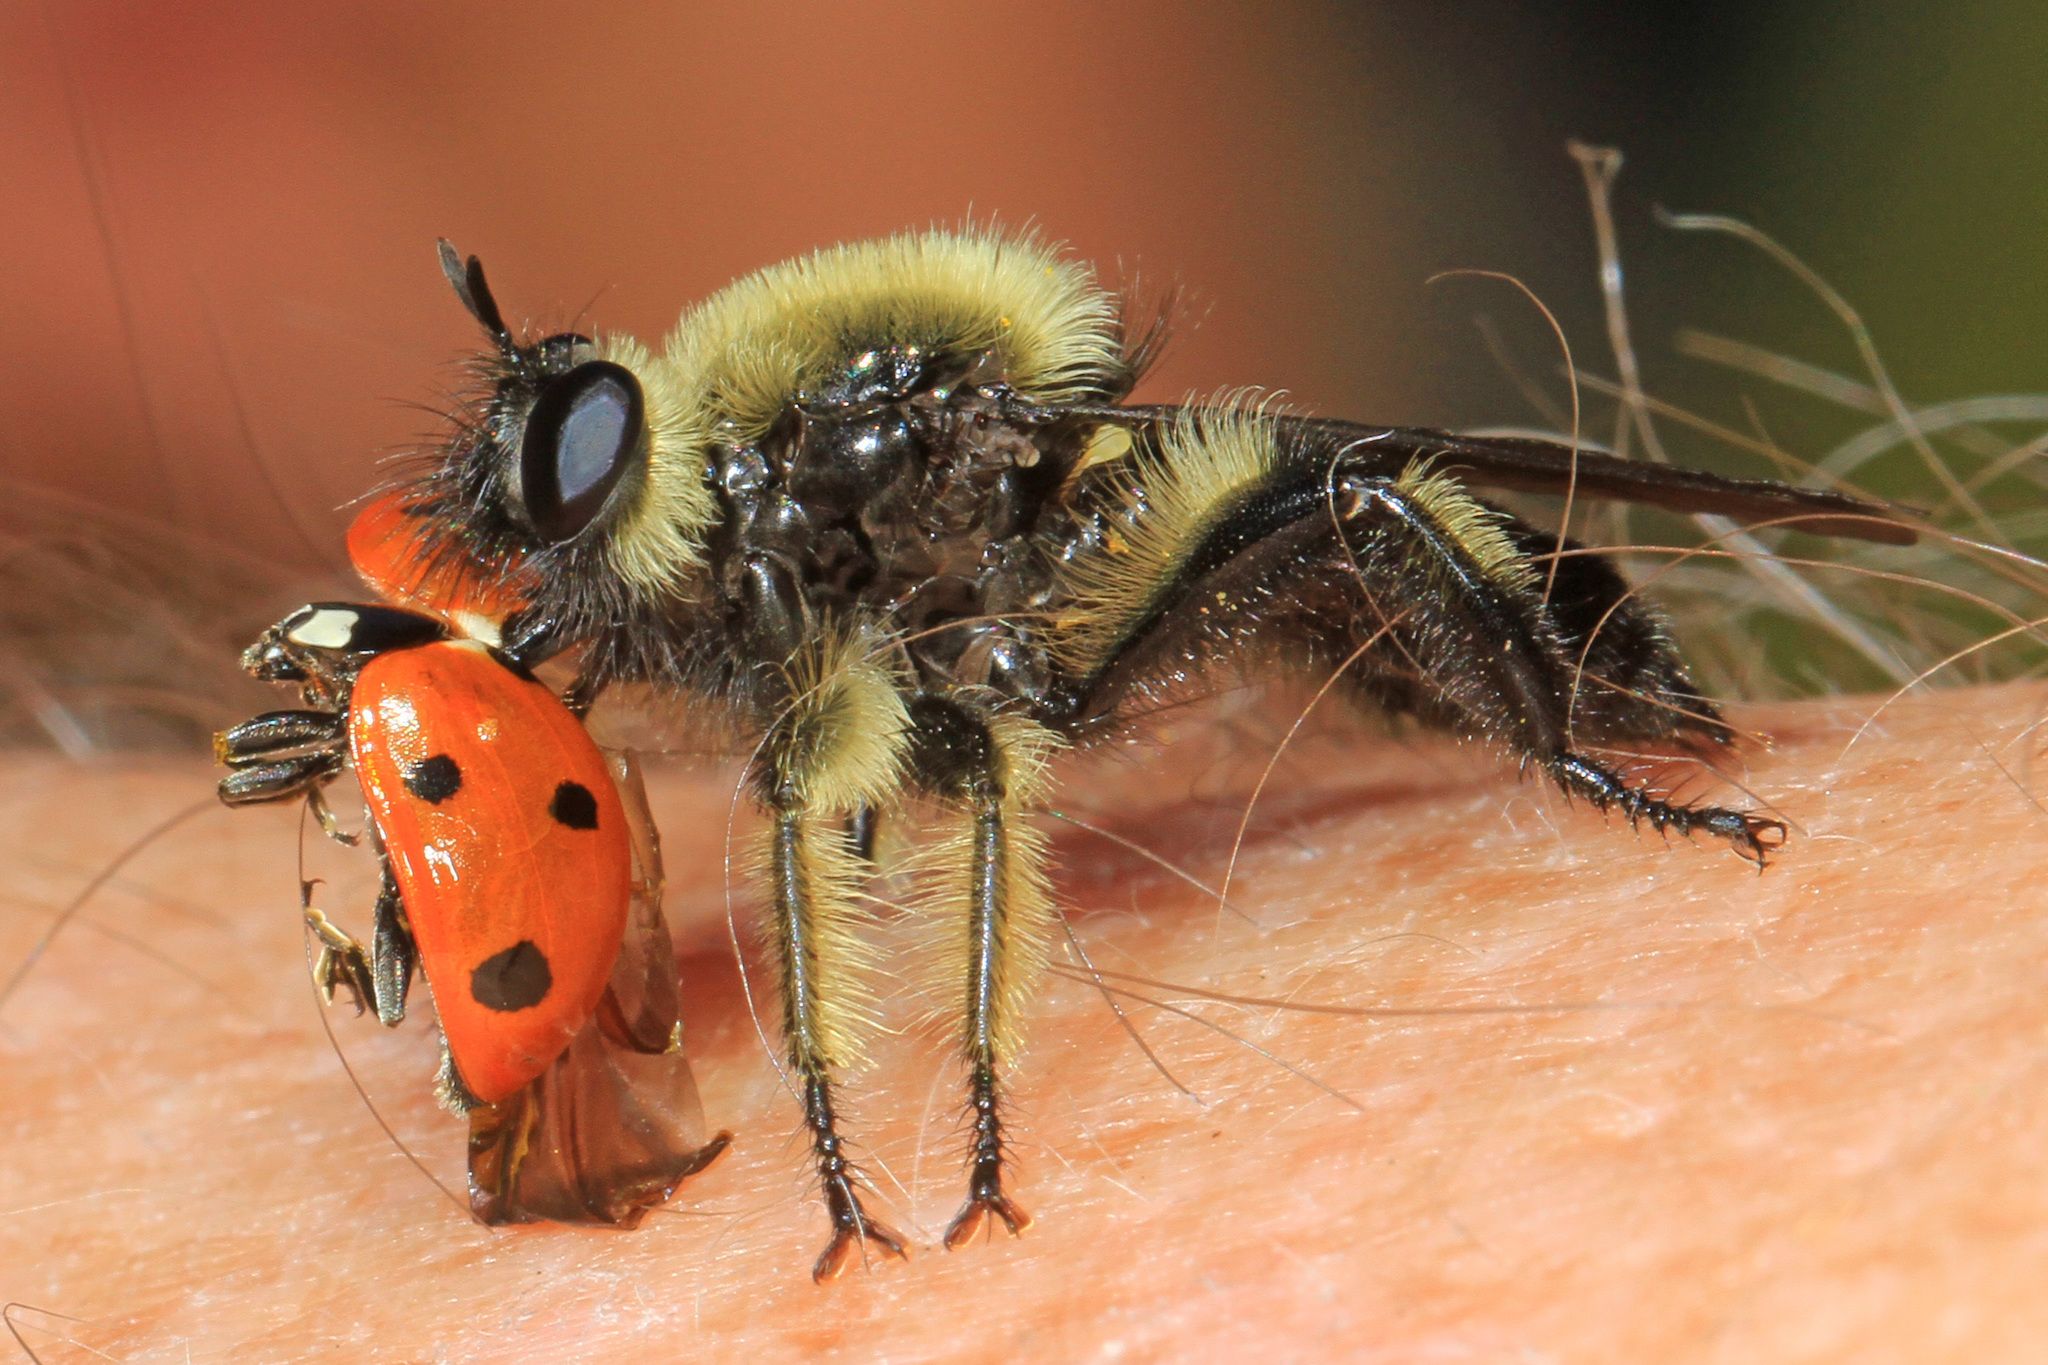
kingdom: Animalia
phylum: Arthropoda
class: Insecta
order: Diptera
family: Asilidae
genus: Laphria
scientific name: Laphria affinis
